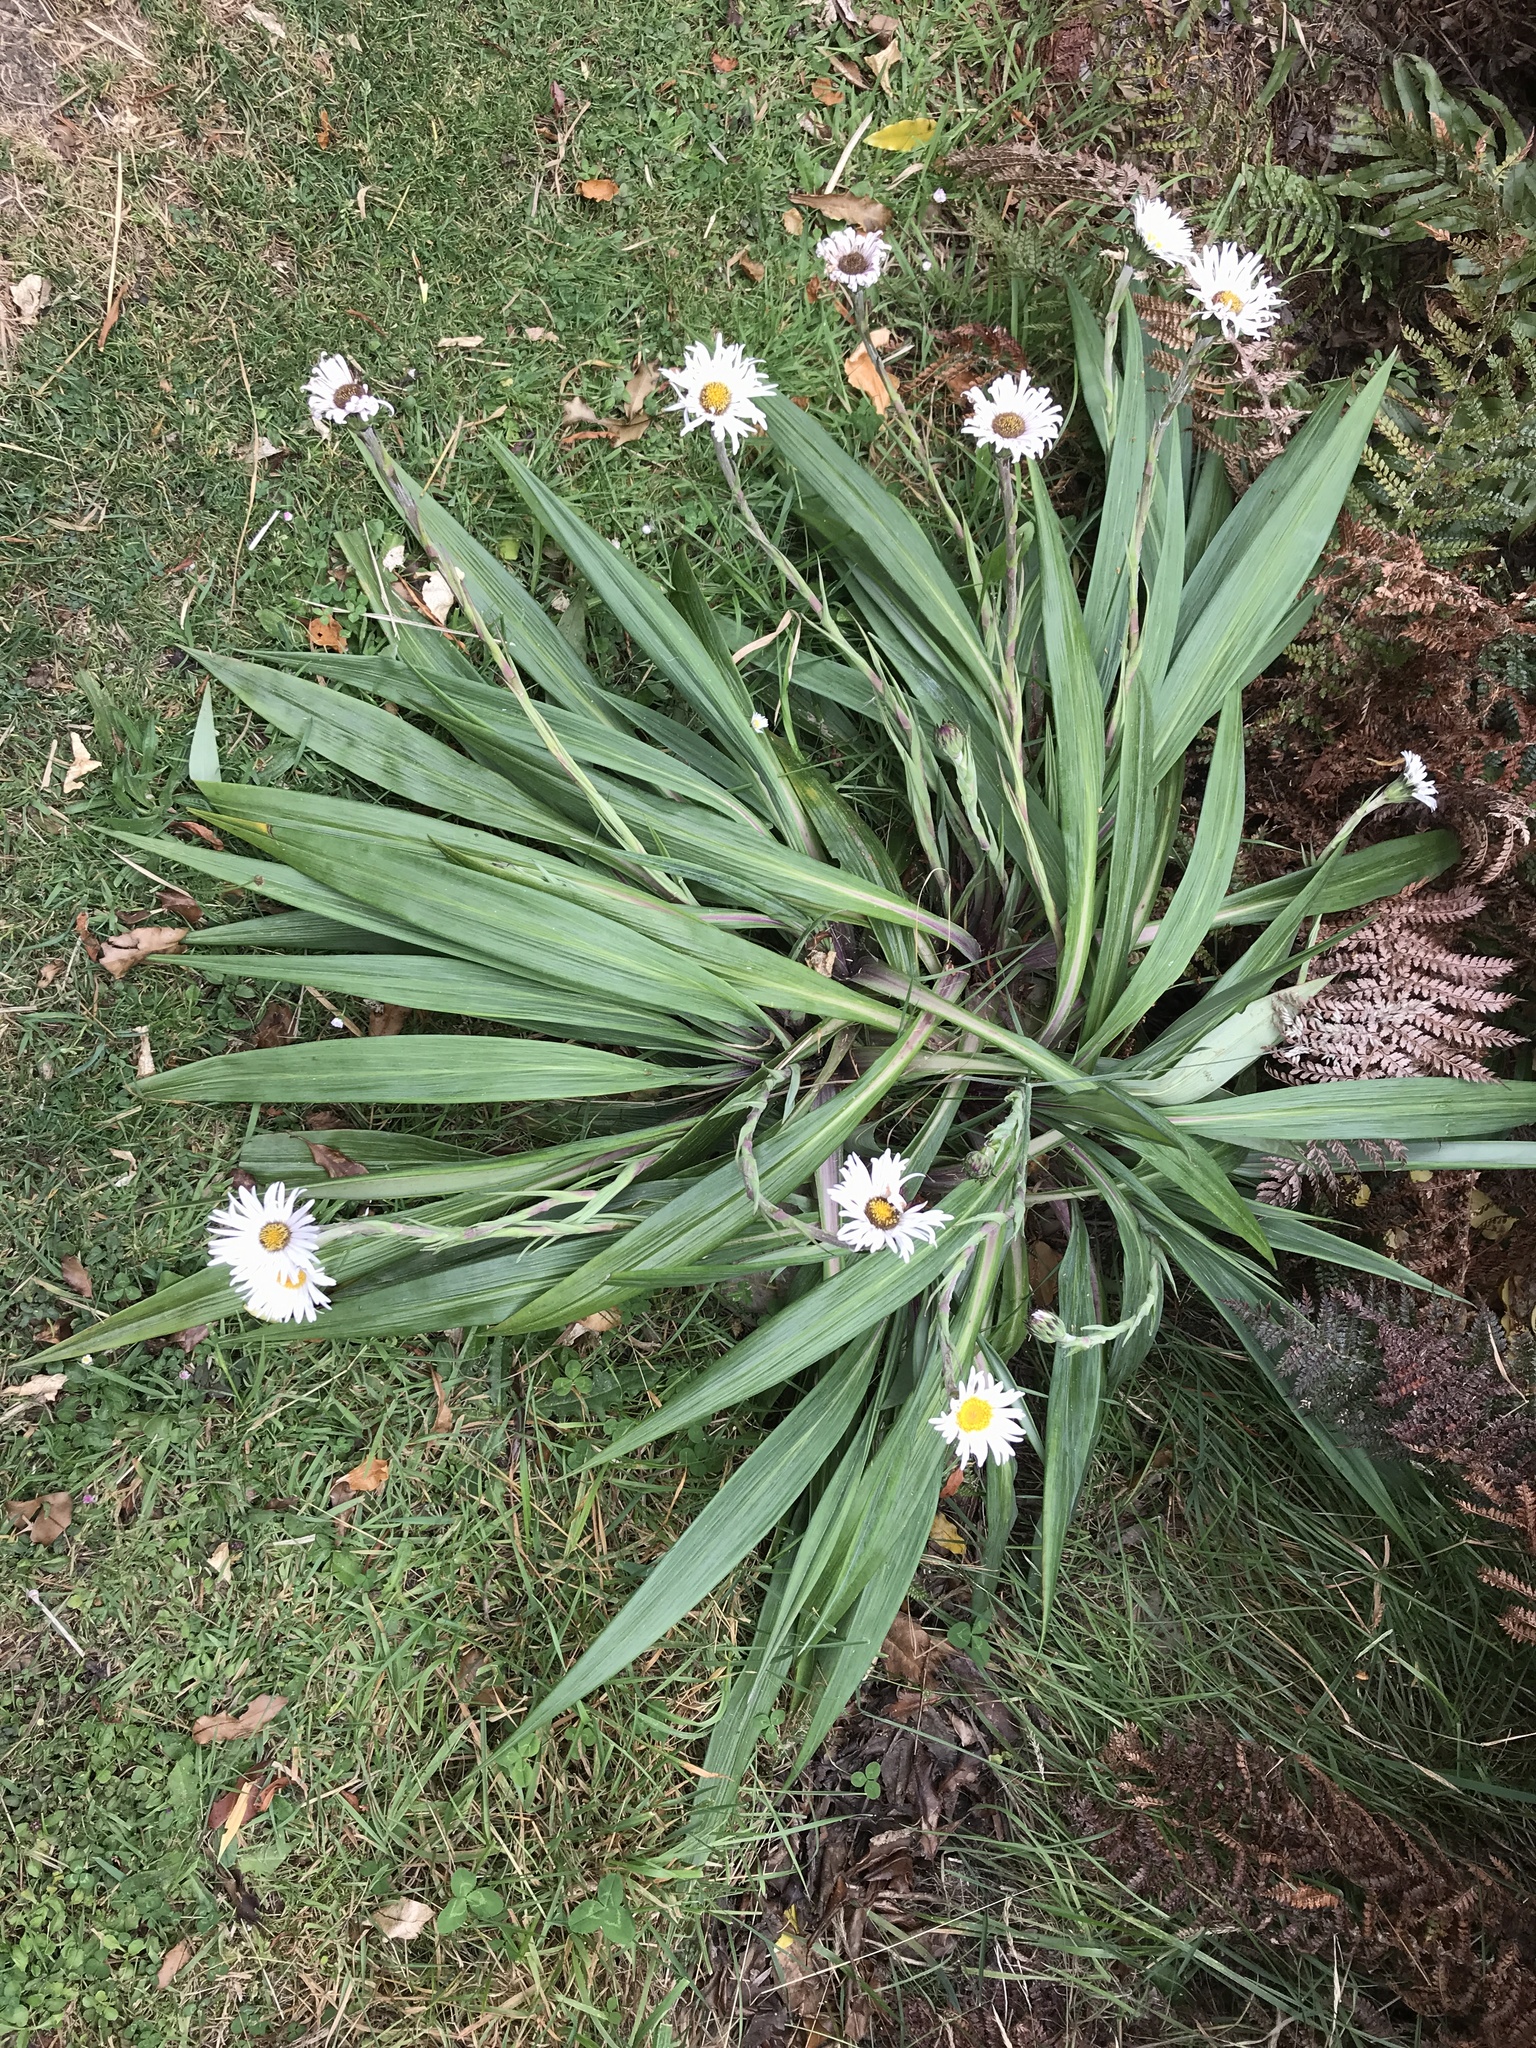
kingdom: Plantae
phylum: Tracheophyta
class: Magnoliopsida
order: Asterales
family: Asteraceae
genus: Celmisia
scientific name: Celmisia mackaui
